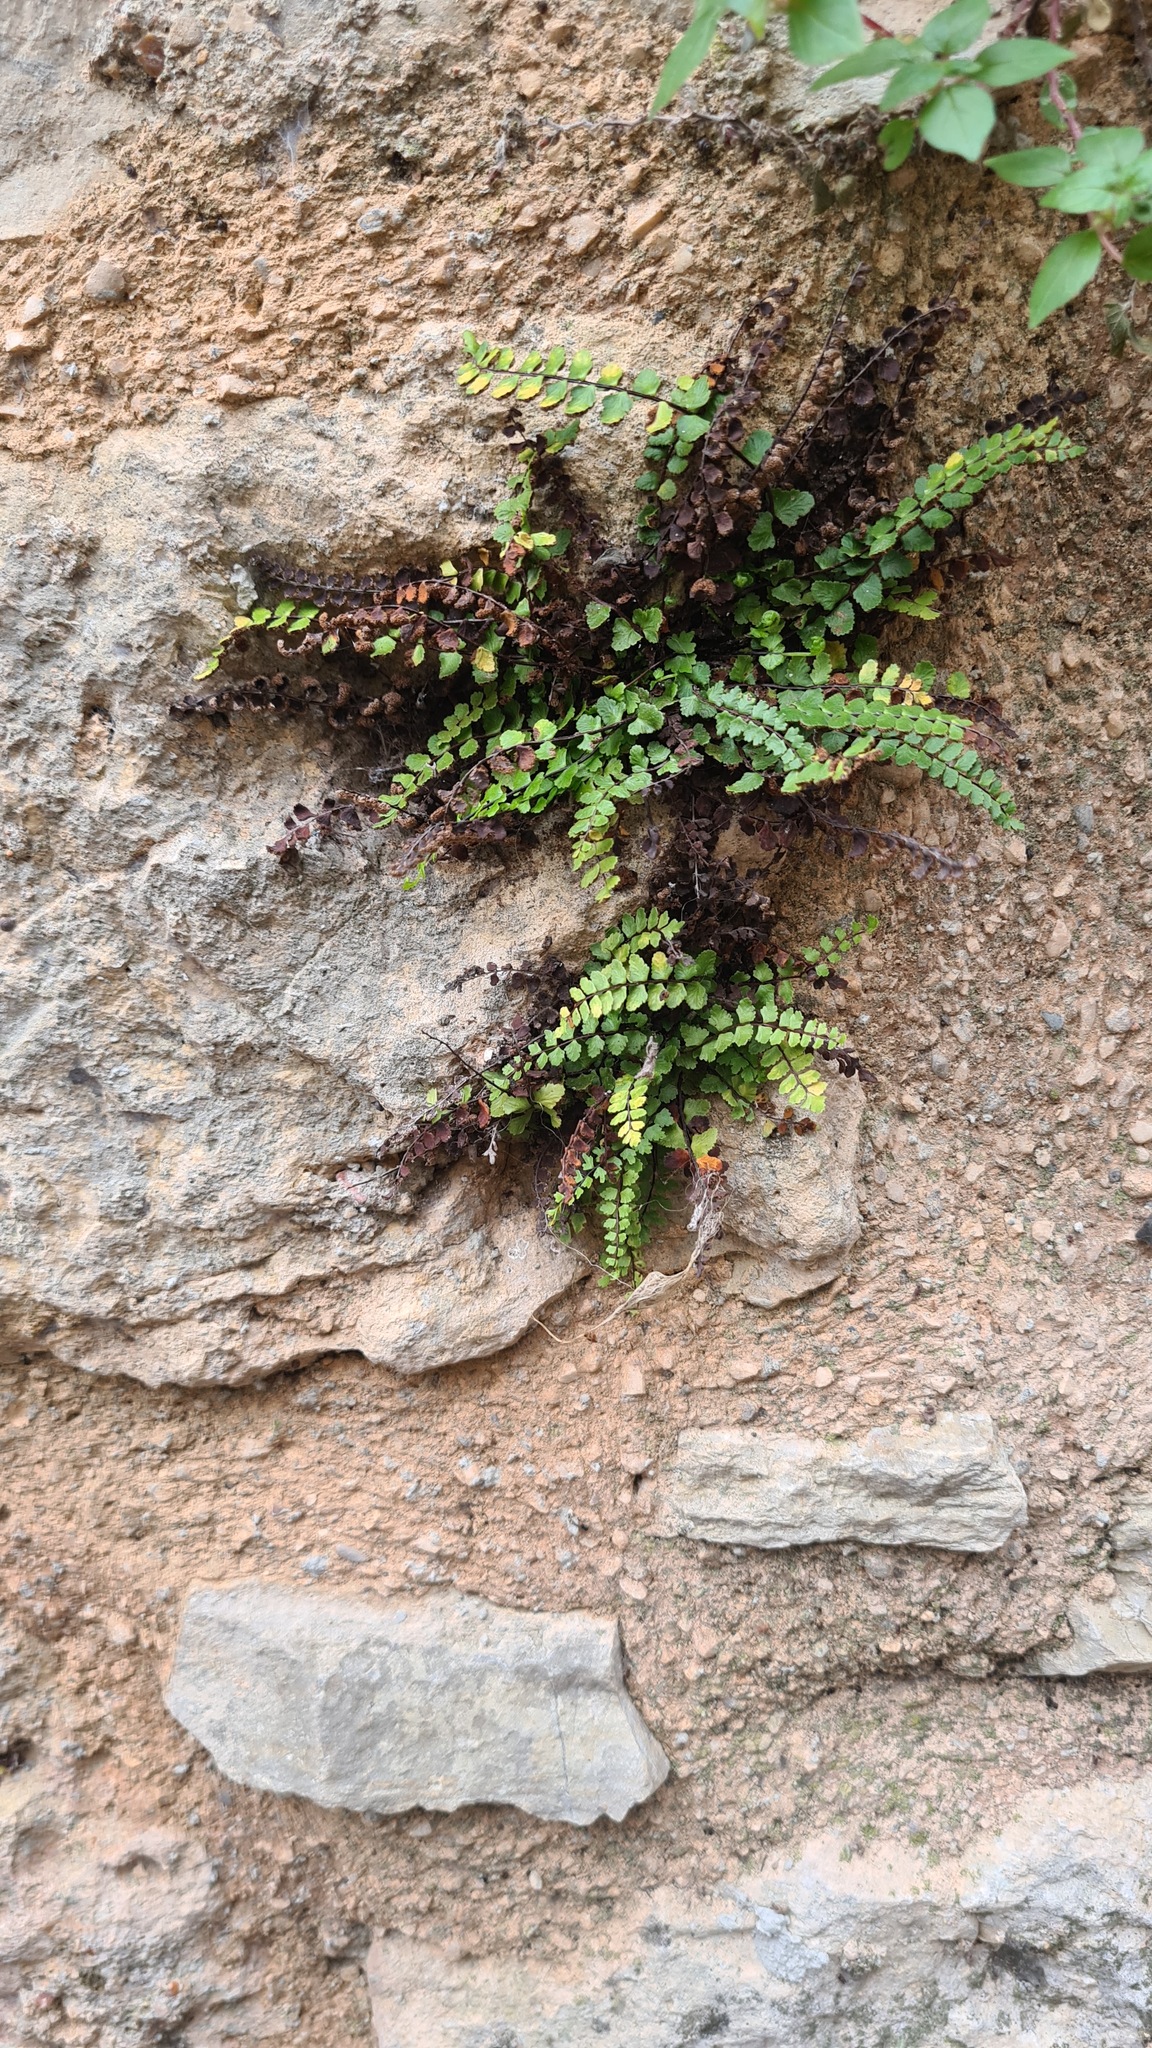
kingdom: Plantae
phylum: Tracheophyta
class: Polypodiopsida
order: Polypodiales
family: Aspleniaceae
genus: Asplenium
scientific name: Asplenium trichomanes
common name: Maidenhair spleenwort
